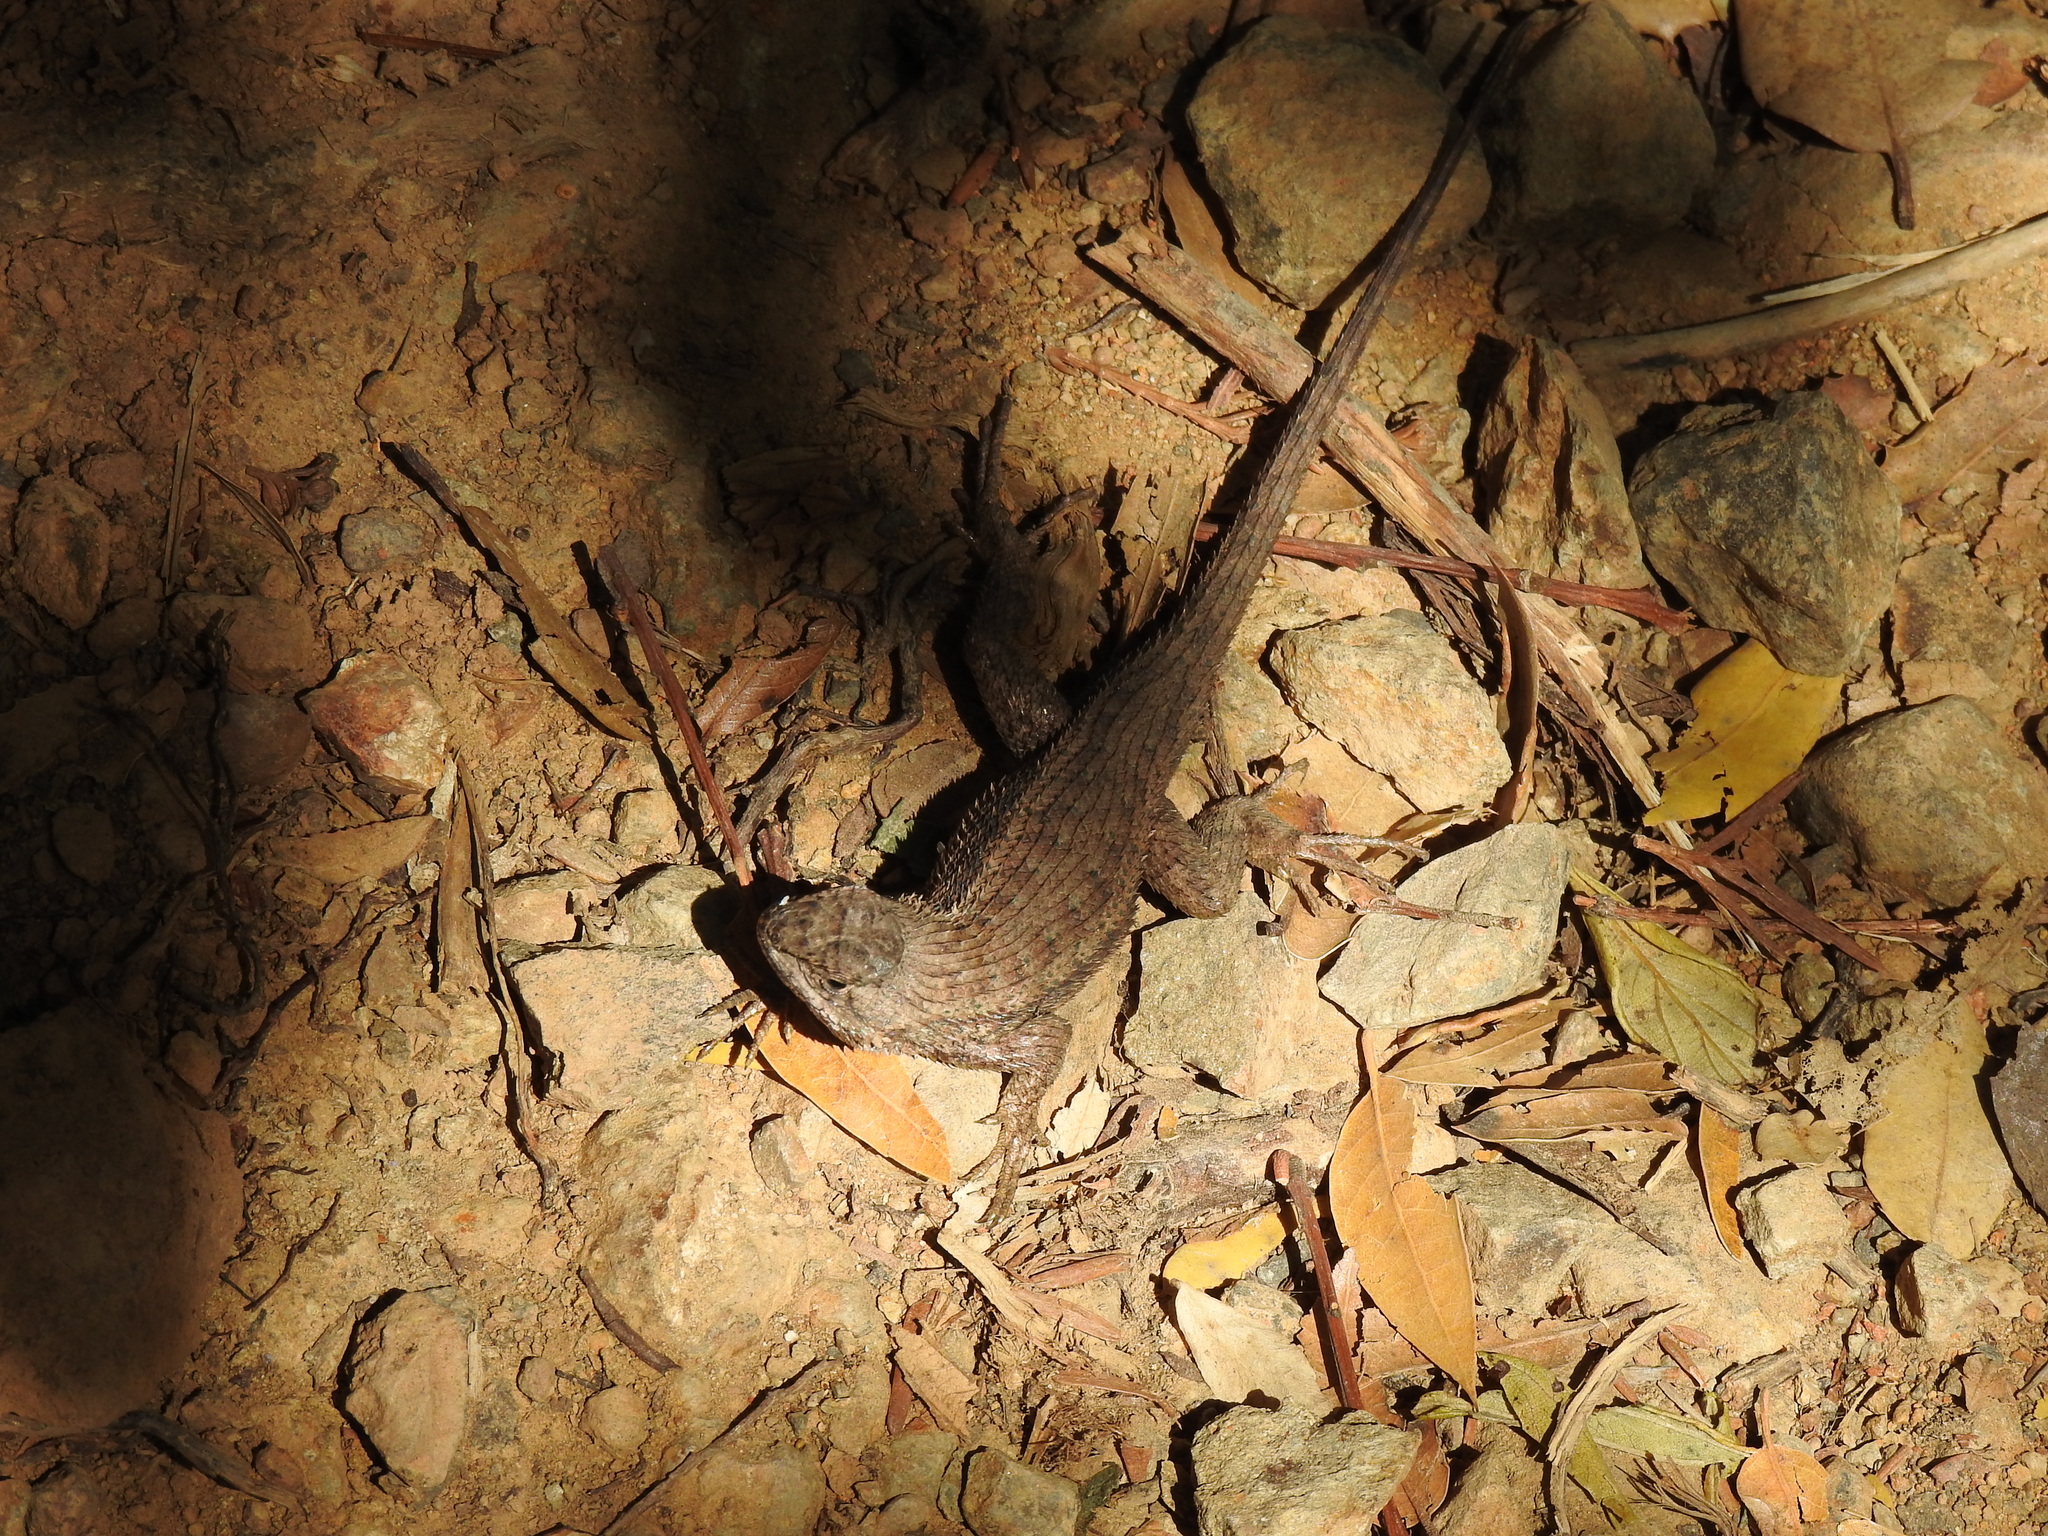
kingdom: Animalia
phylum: Chordata
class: Squamata
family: Phrynosomatidae
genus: Sceloporus
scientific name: Sceloporus occidentalis
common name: Western fence lizard
